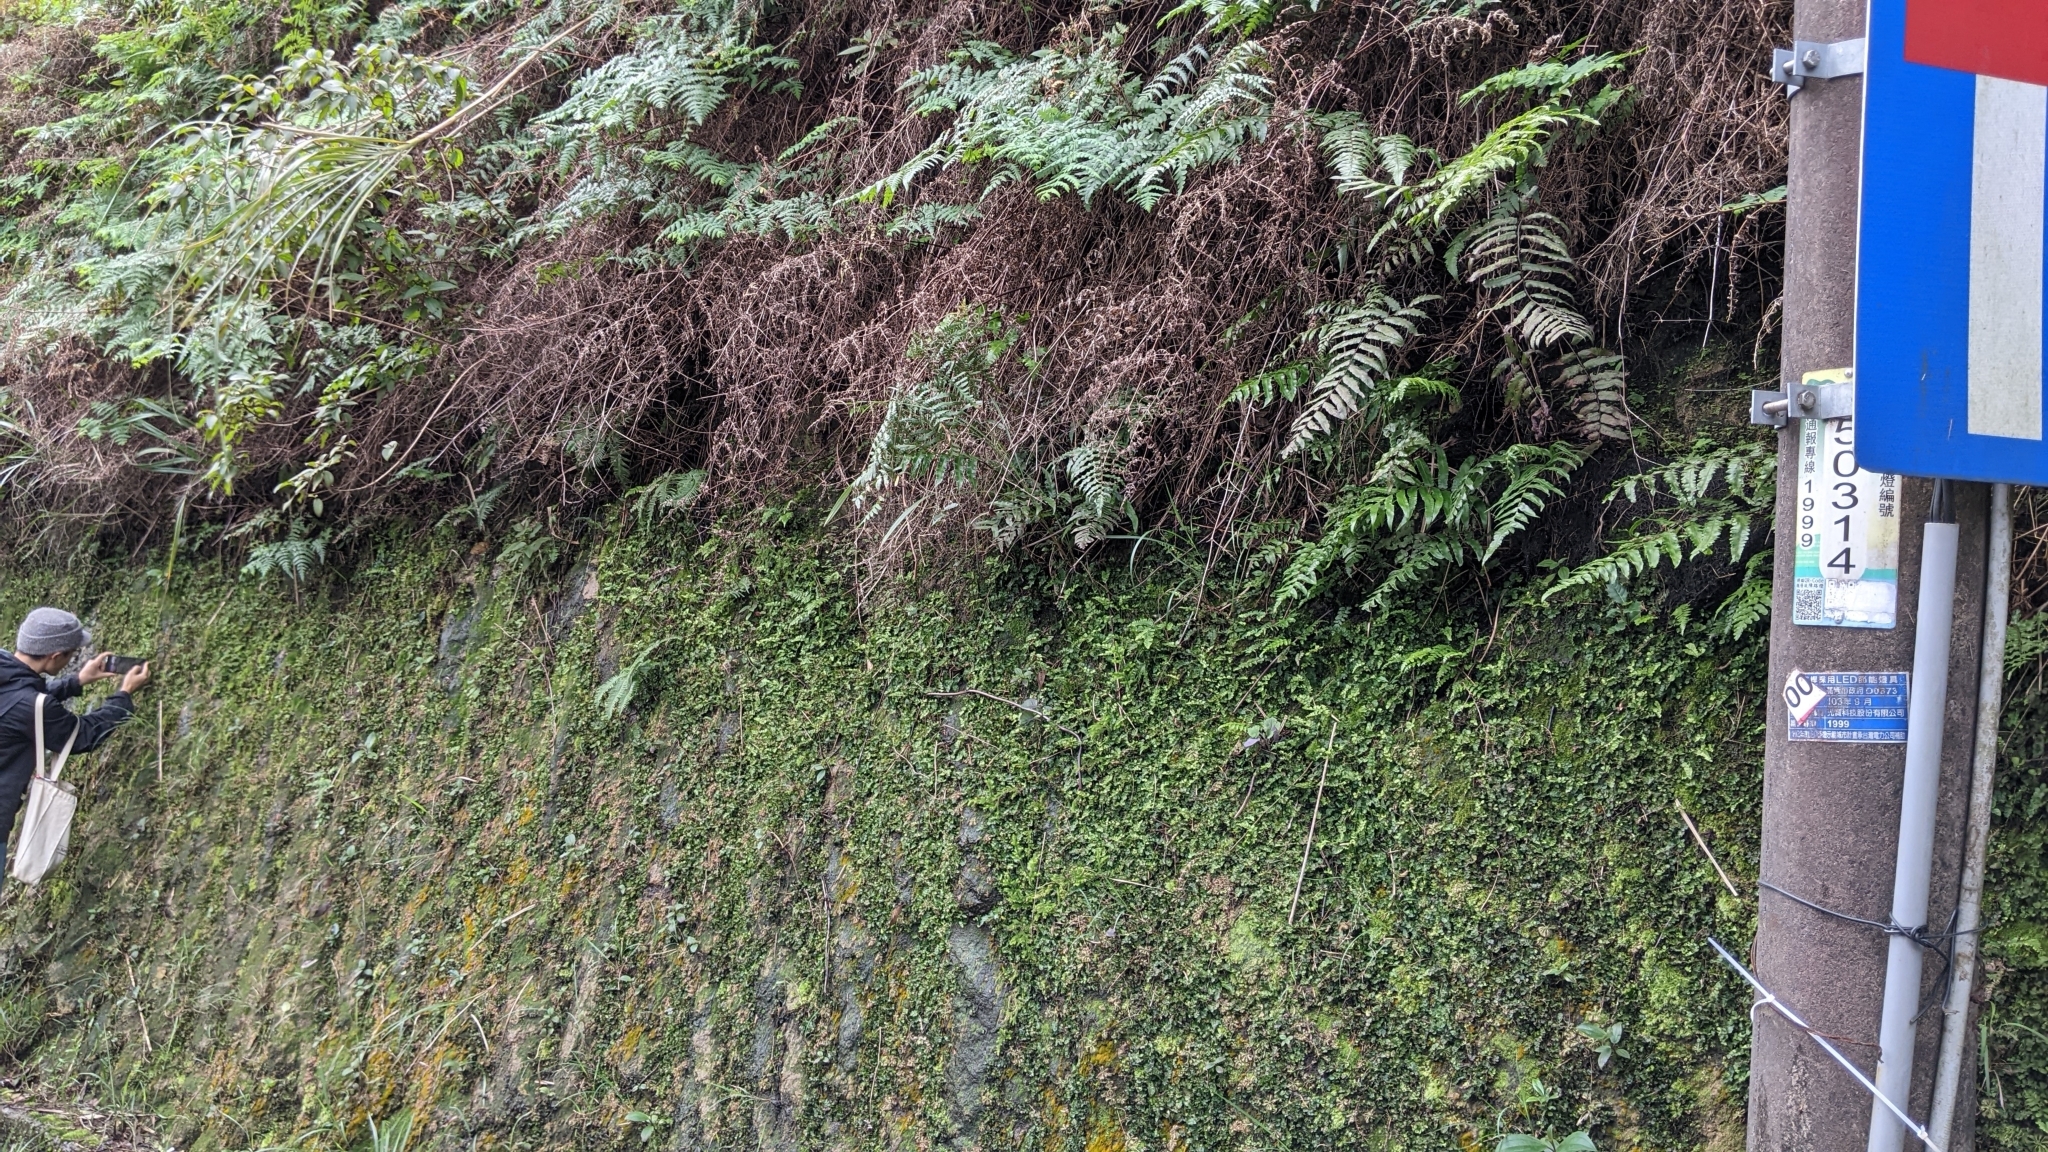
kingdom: Plantae
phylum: Tracheophyta
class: Magnoliopsida
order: Caryophyllales
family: Droseraceae
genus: Drosera
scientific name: Drosera spatulata
